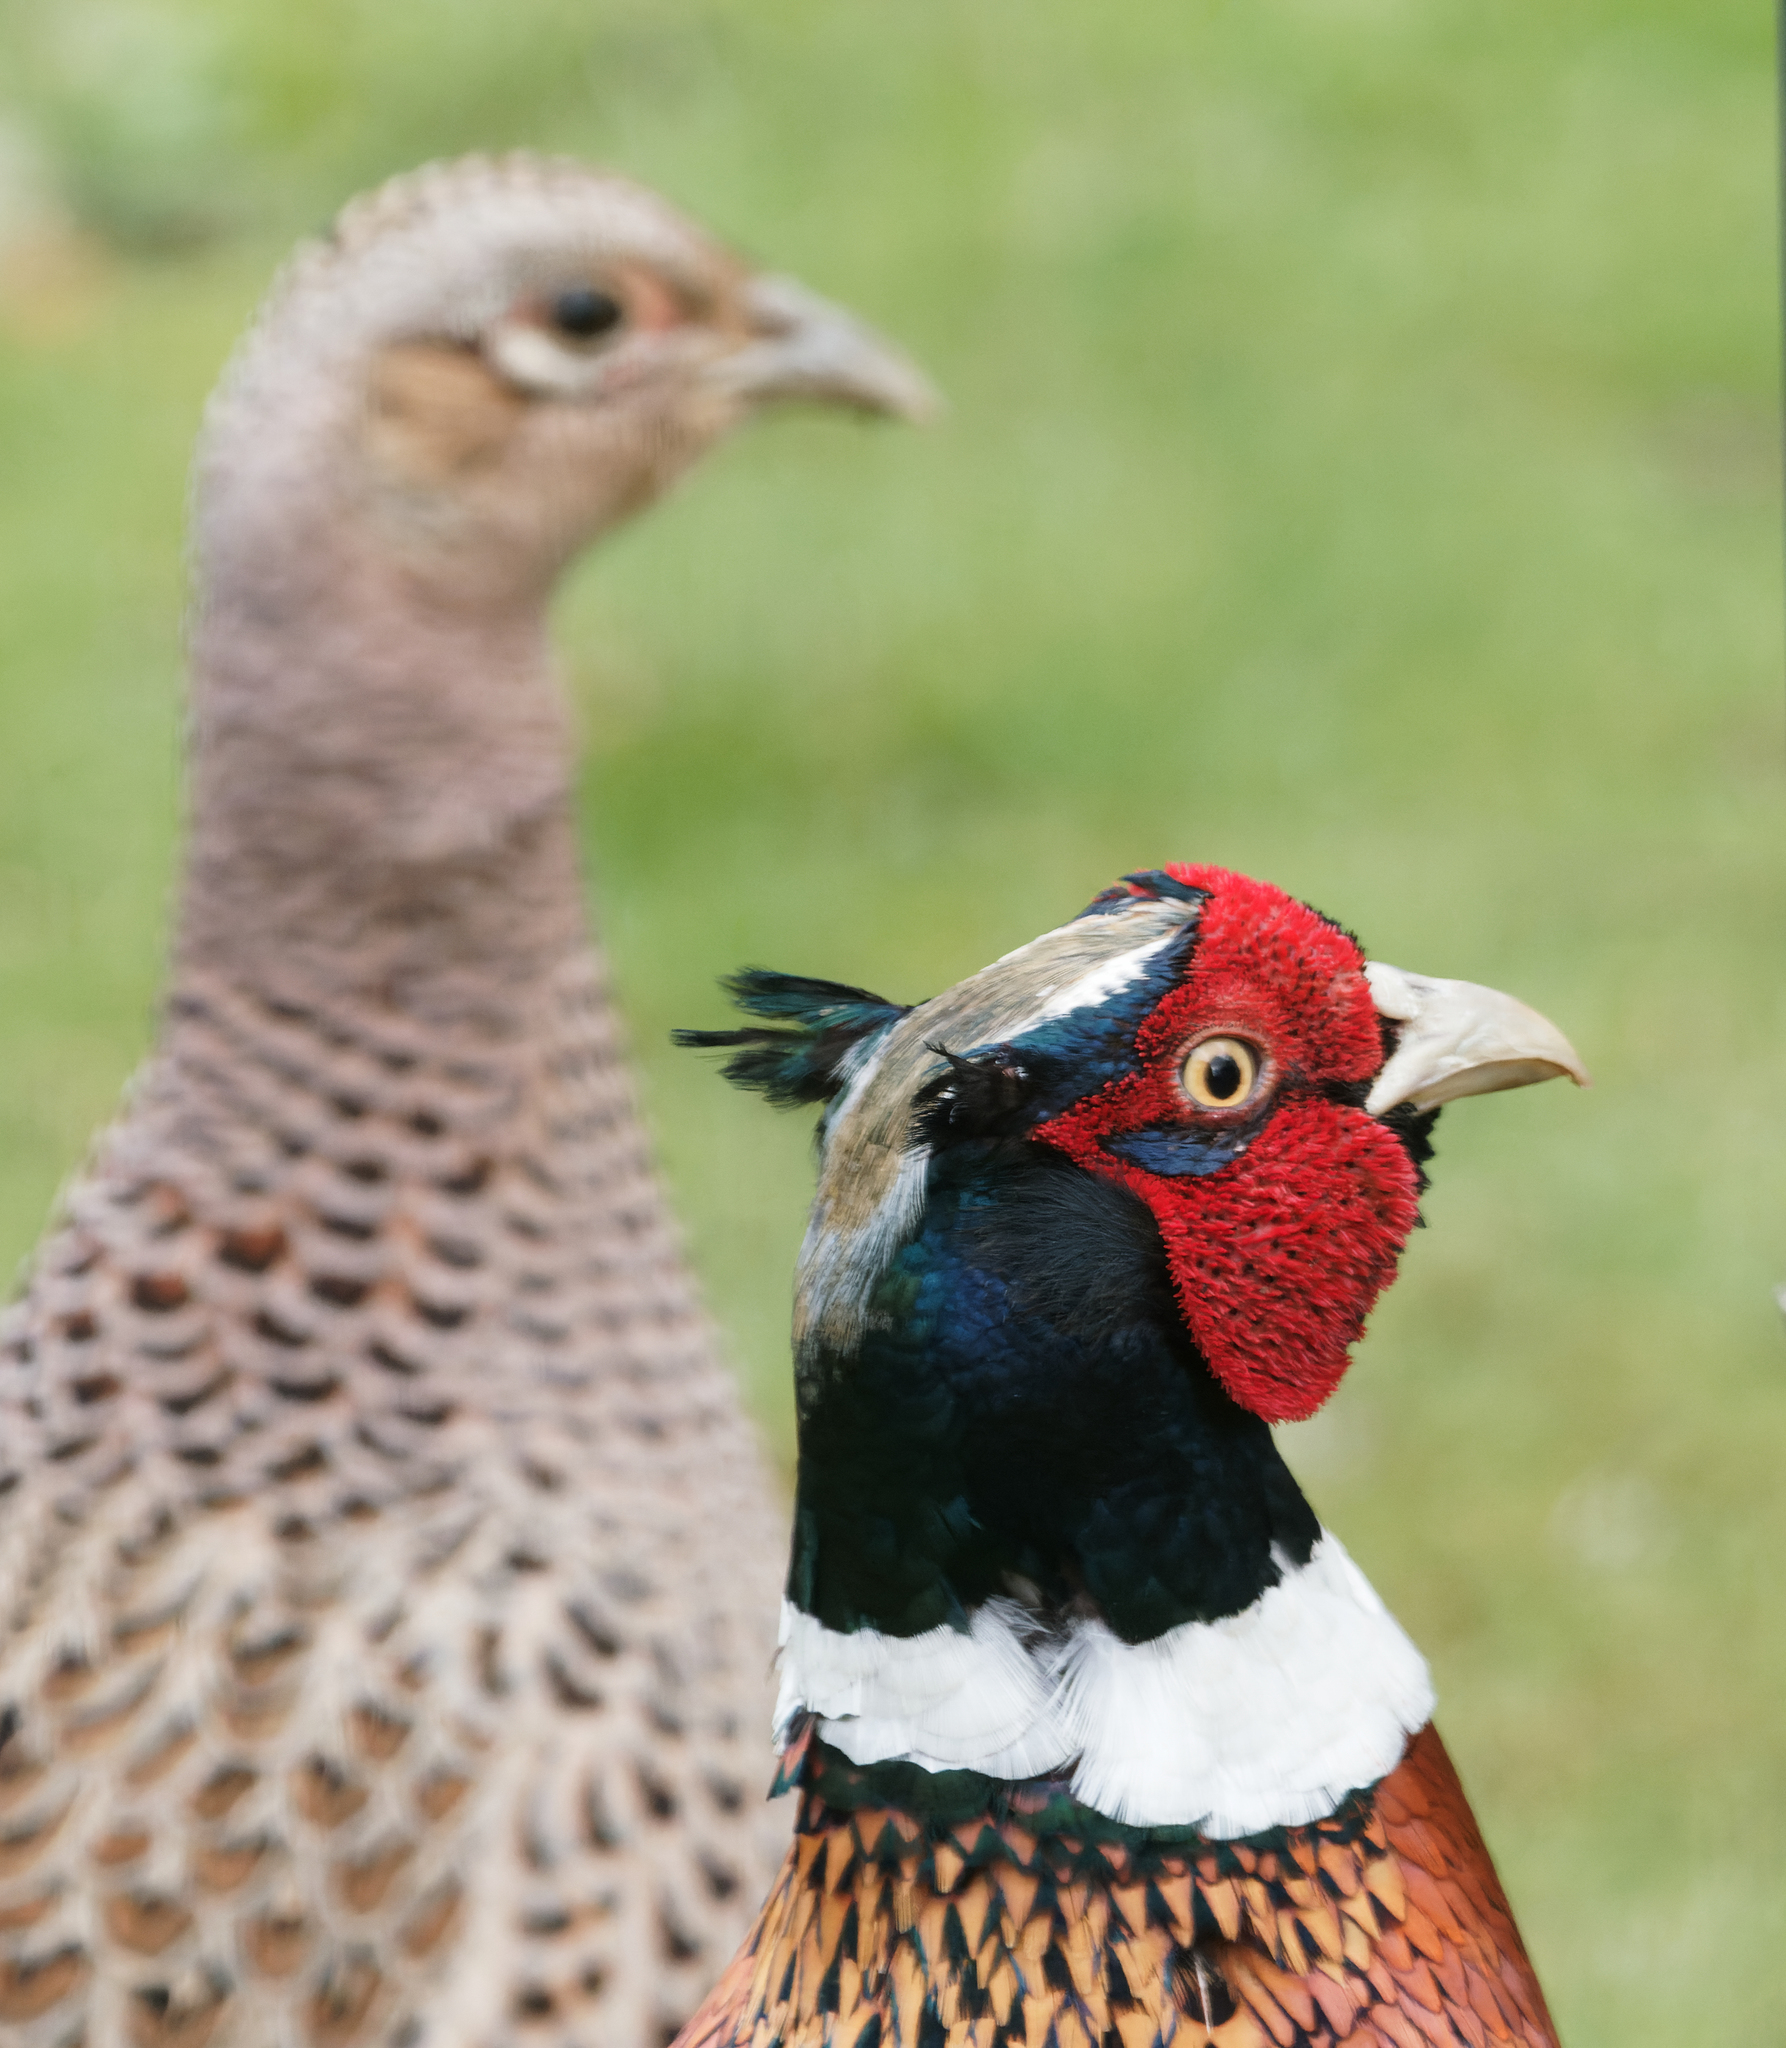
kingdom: Animalia
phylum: Chordata
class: Aves
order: Galliformes
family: Phasianidae
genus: Phasianus
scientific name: Phasianus colchicus
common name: Common pheasant
